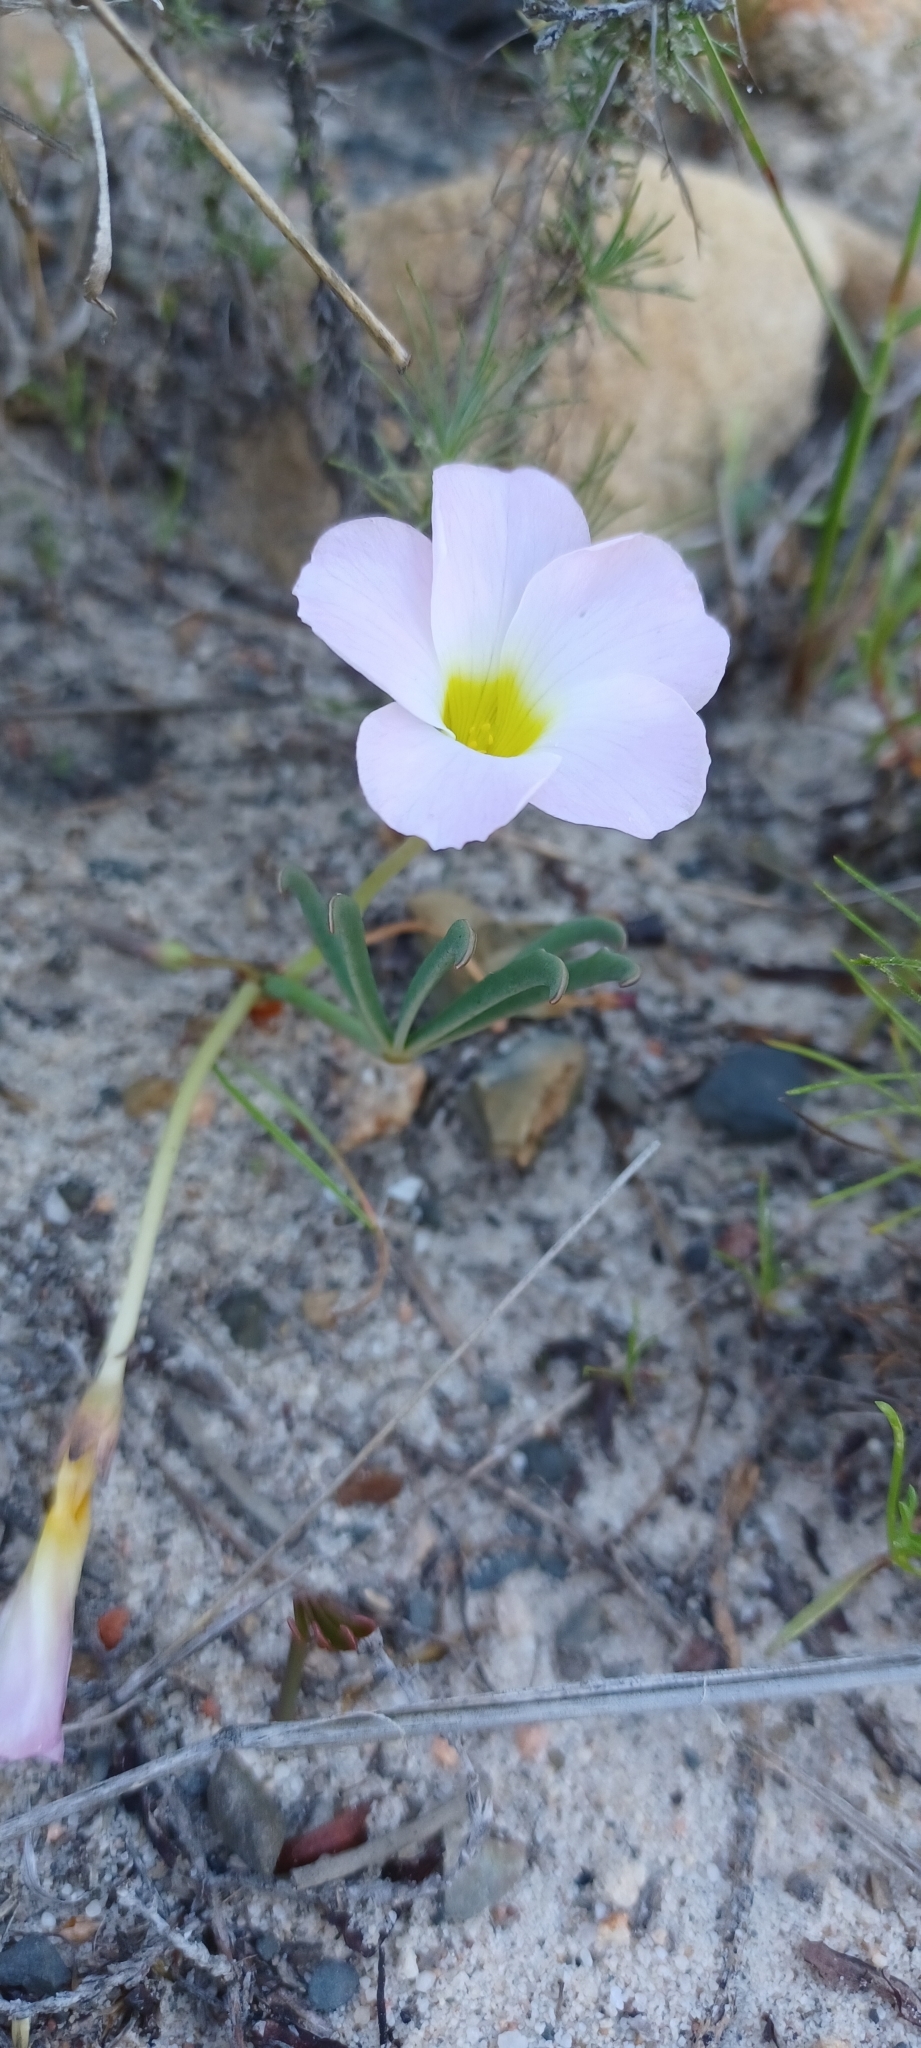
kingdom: Plantae
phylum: Tracheophyta
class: Magnoliopsida
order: Oxalidales
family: Oxalidaceae
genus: Oxalis
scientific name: Oxalis flava
